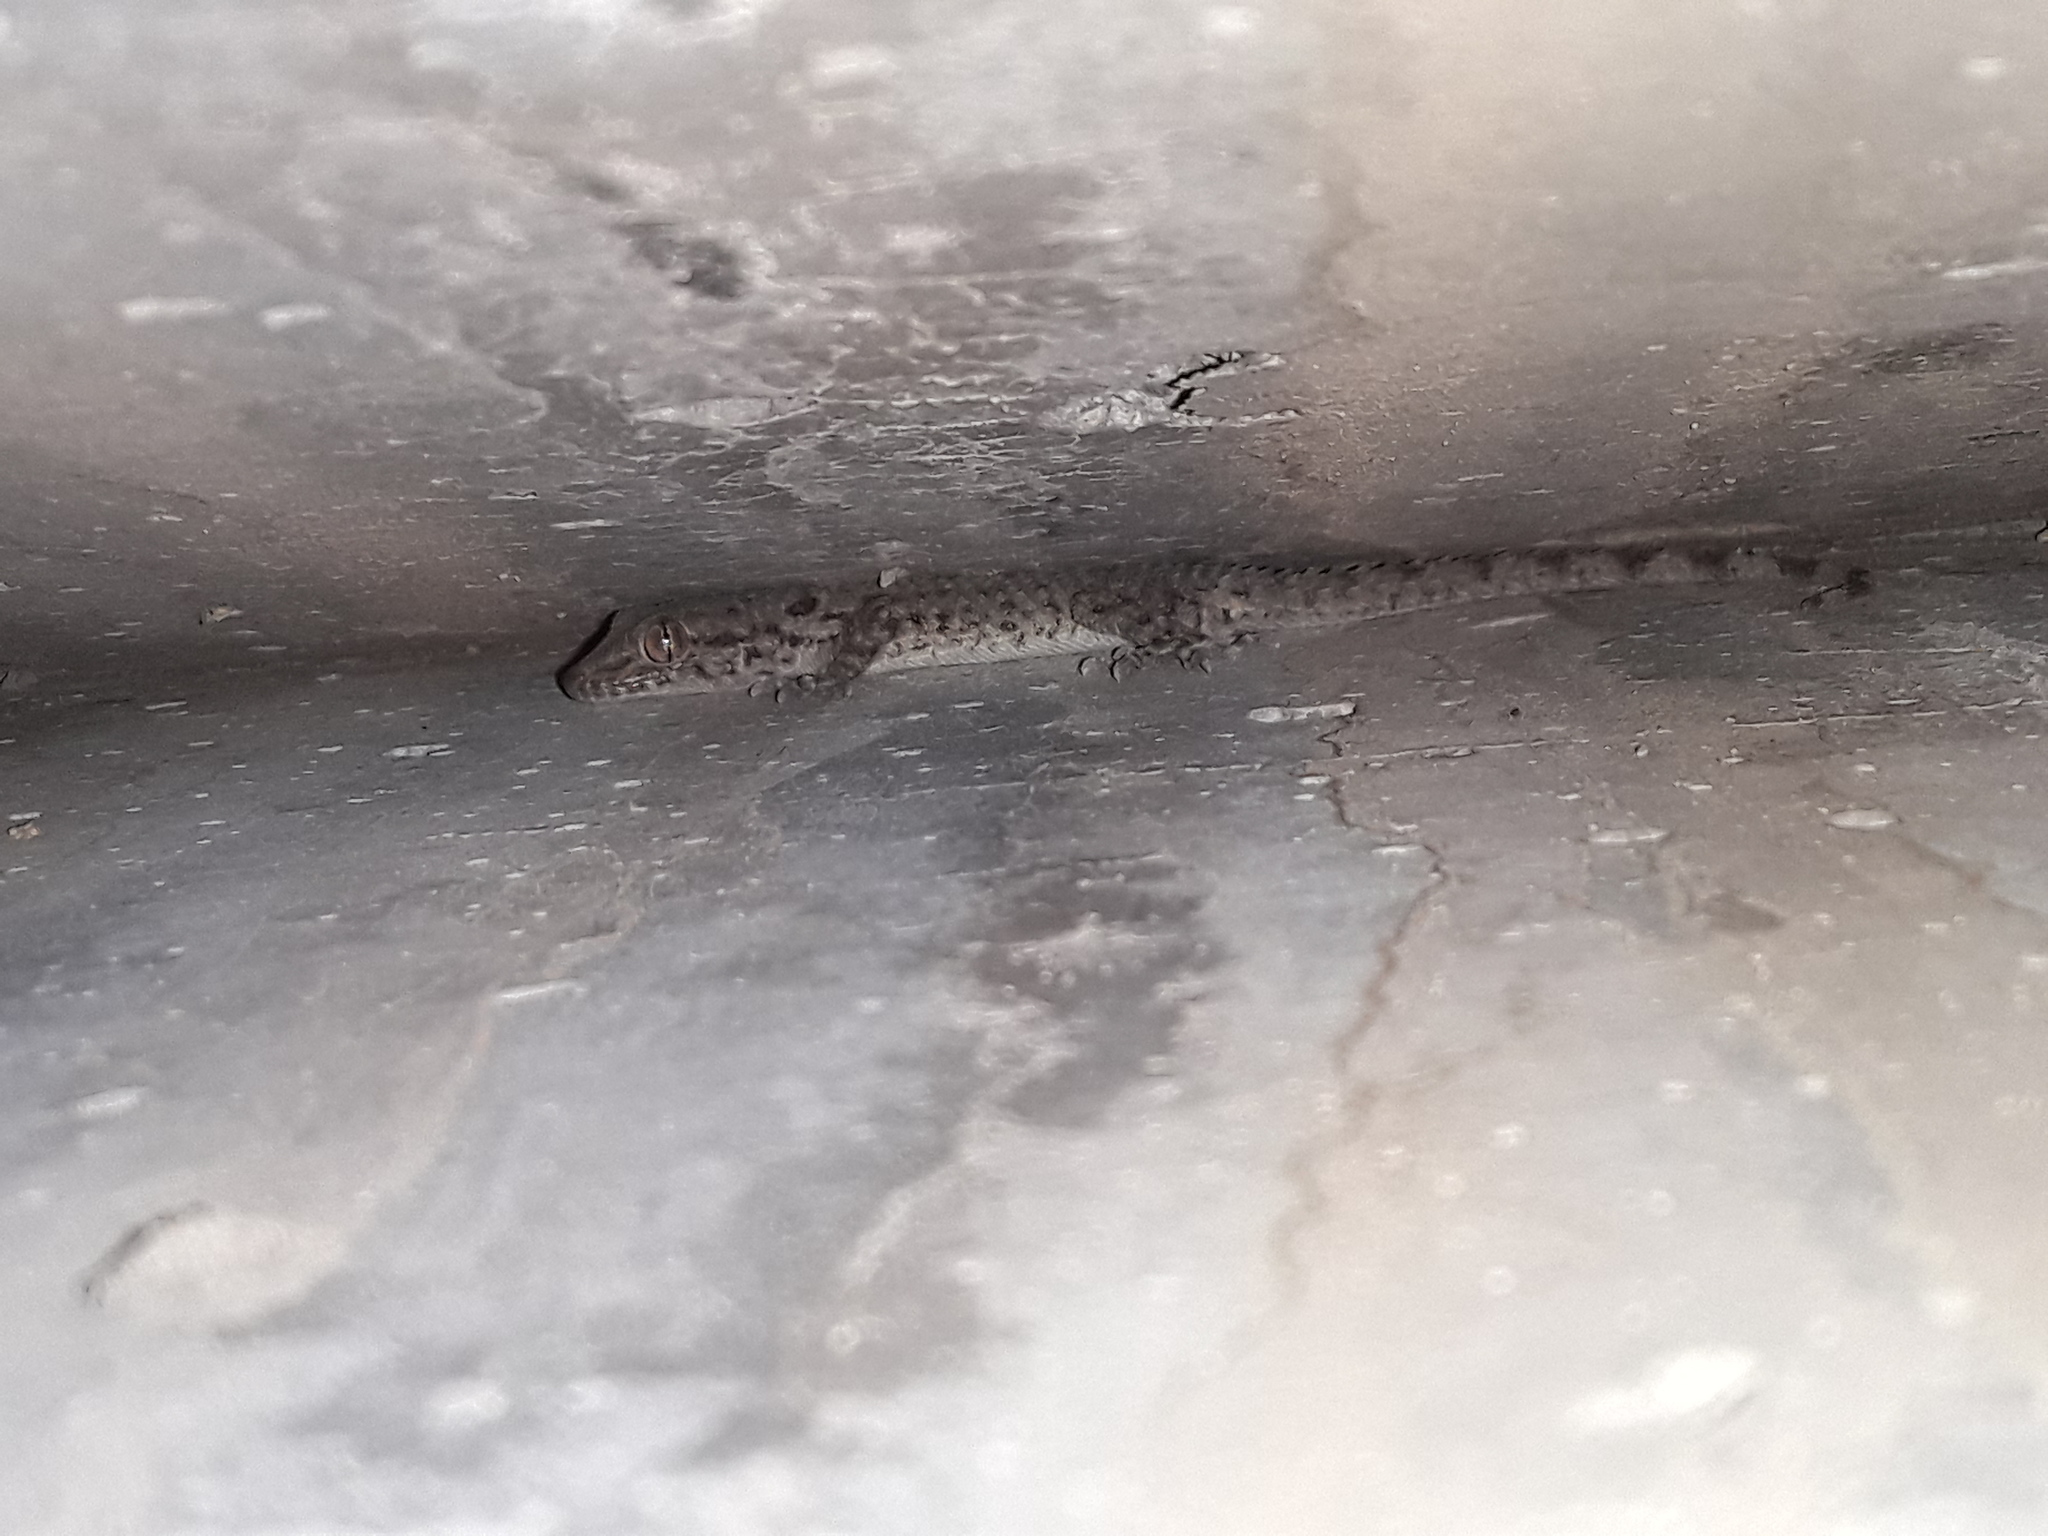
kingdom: Animalia
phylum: Chordata
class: Squamata
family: Gekkonidae
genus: Cyrtopodion
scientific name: Cyrtopodion scabrum
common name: Rough-tailed gecko
